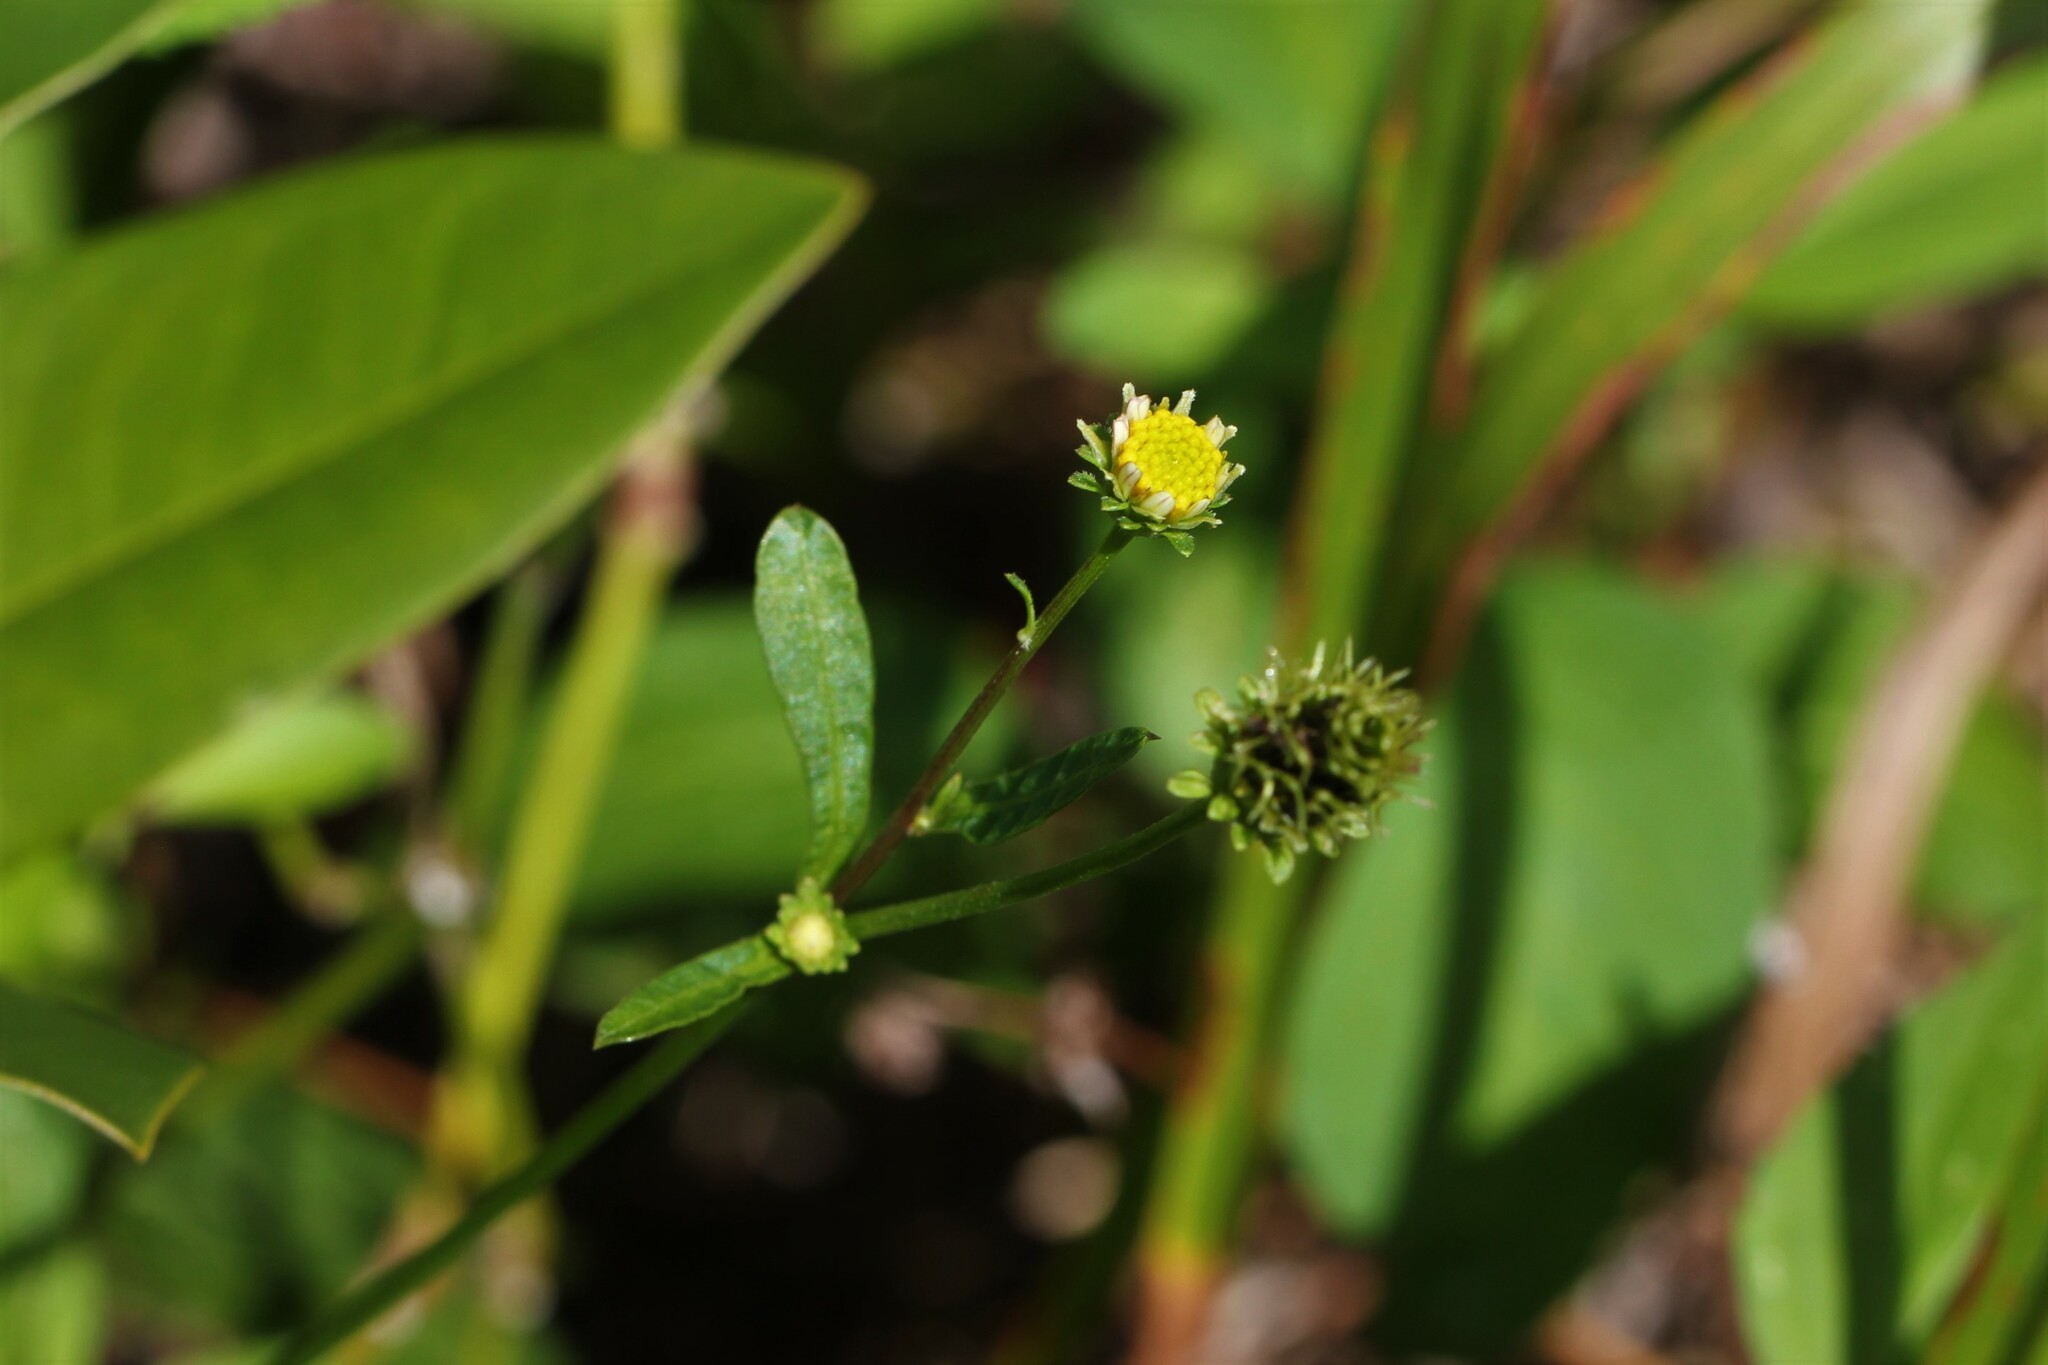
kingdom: Plantae
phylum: Tracheophyta
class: Magnoliopsida
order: Asterales
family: Asteraceae
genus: Bidens
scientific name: Bidens alba
